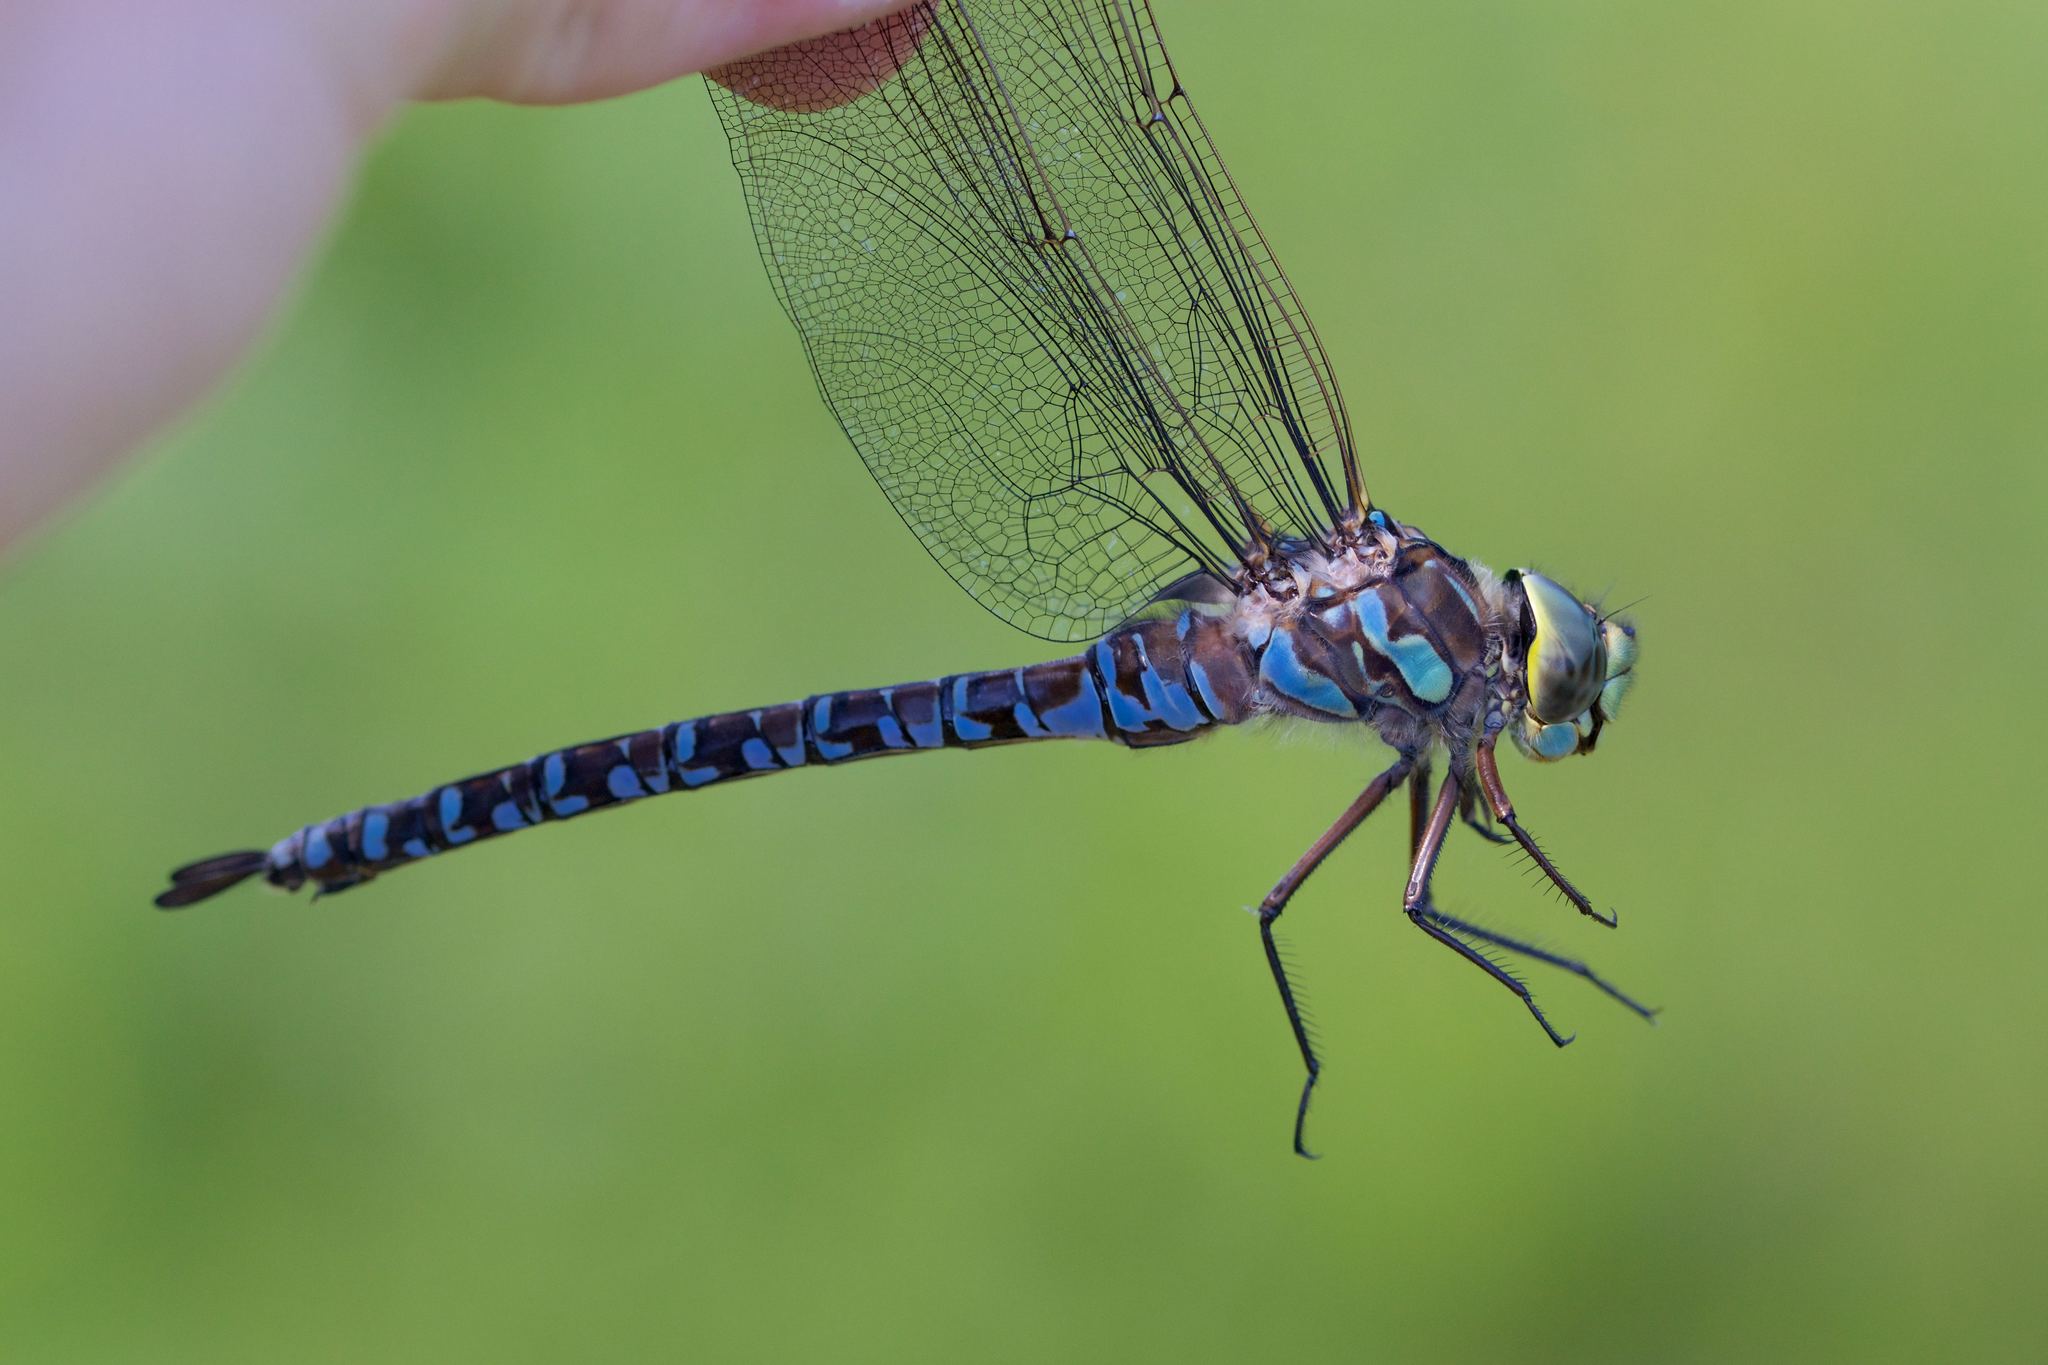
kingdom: Animalia
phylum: Arthropoda
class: Insecta
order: Odonata
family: Aeshnidae
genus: Aeshna
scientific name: Aeshna eremita
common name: Lake darner
